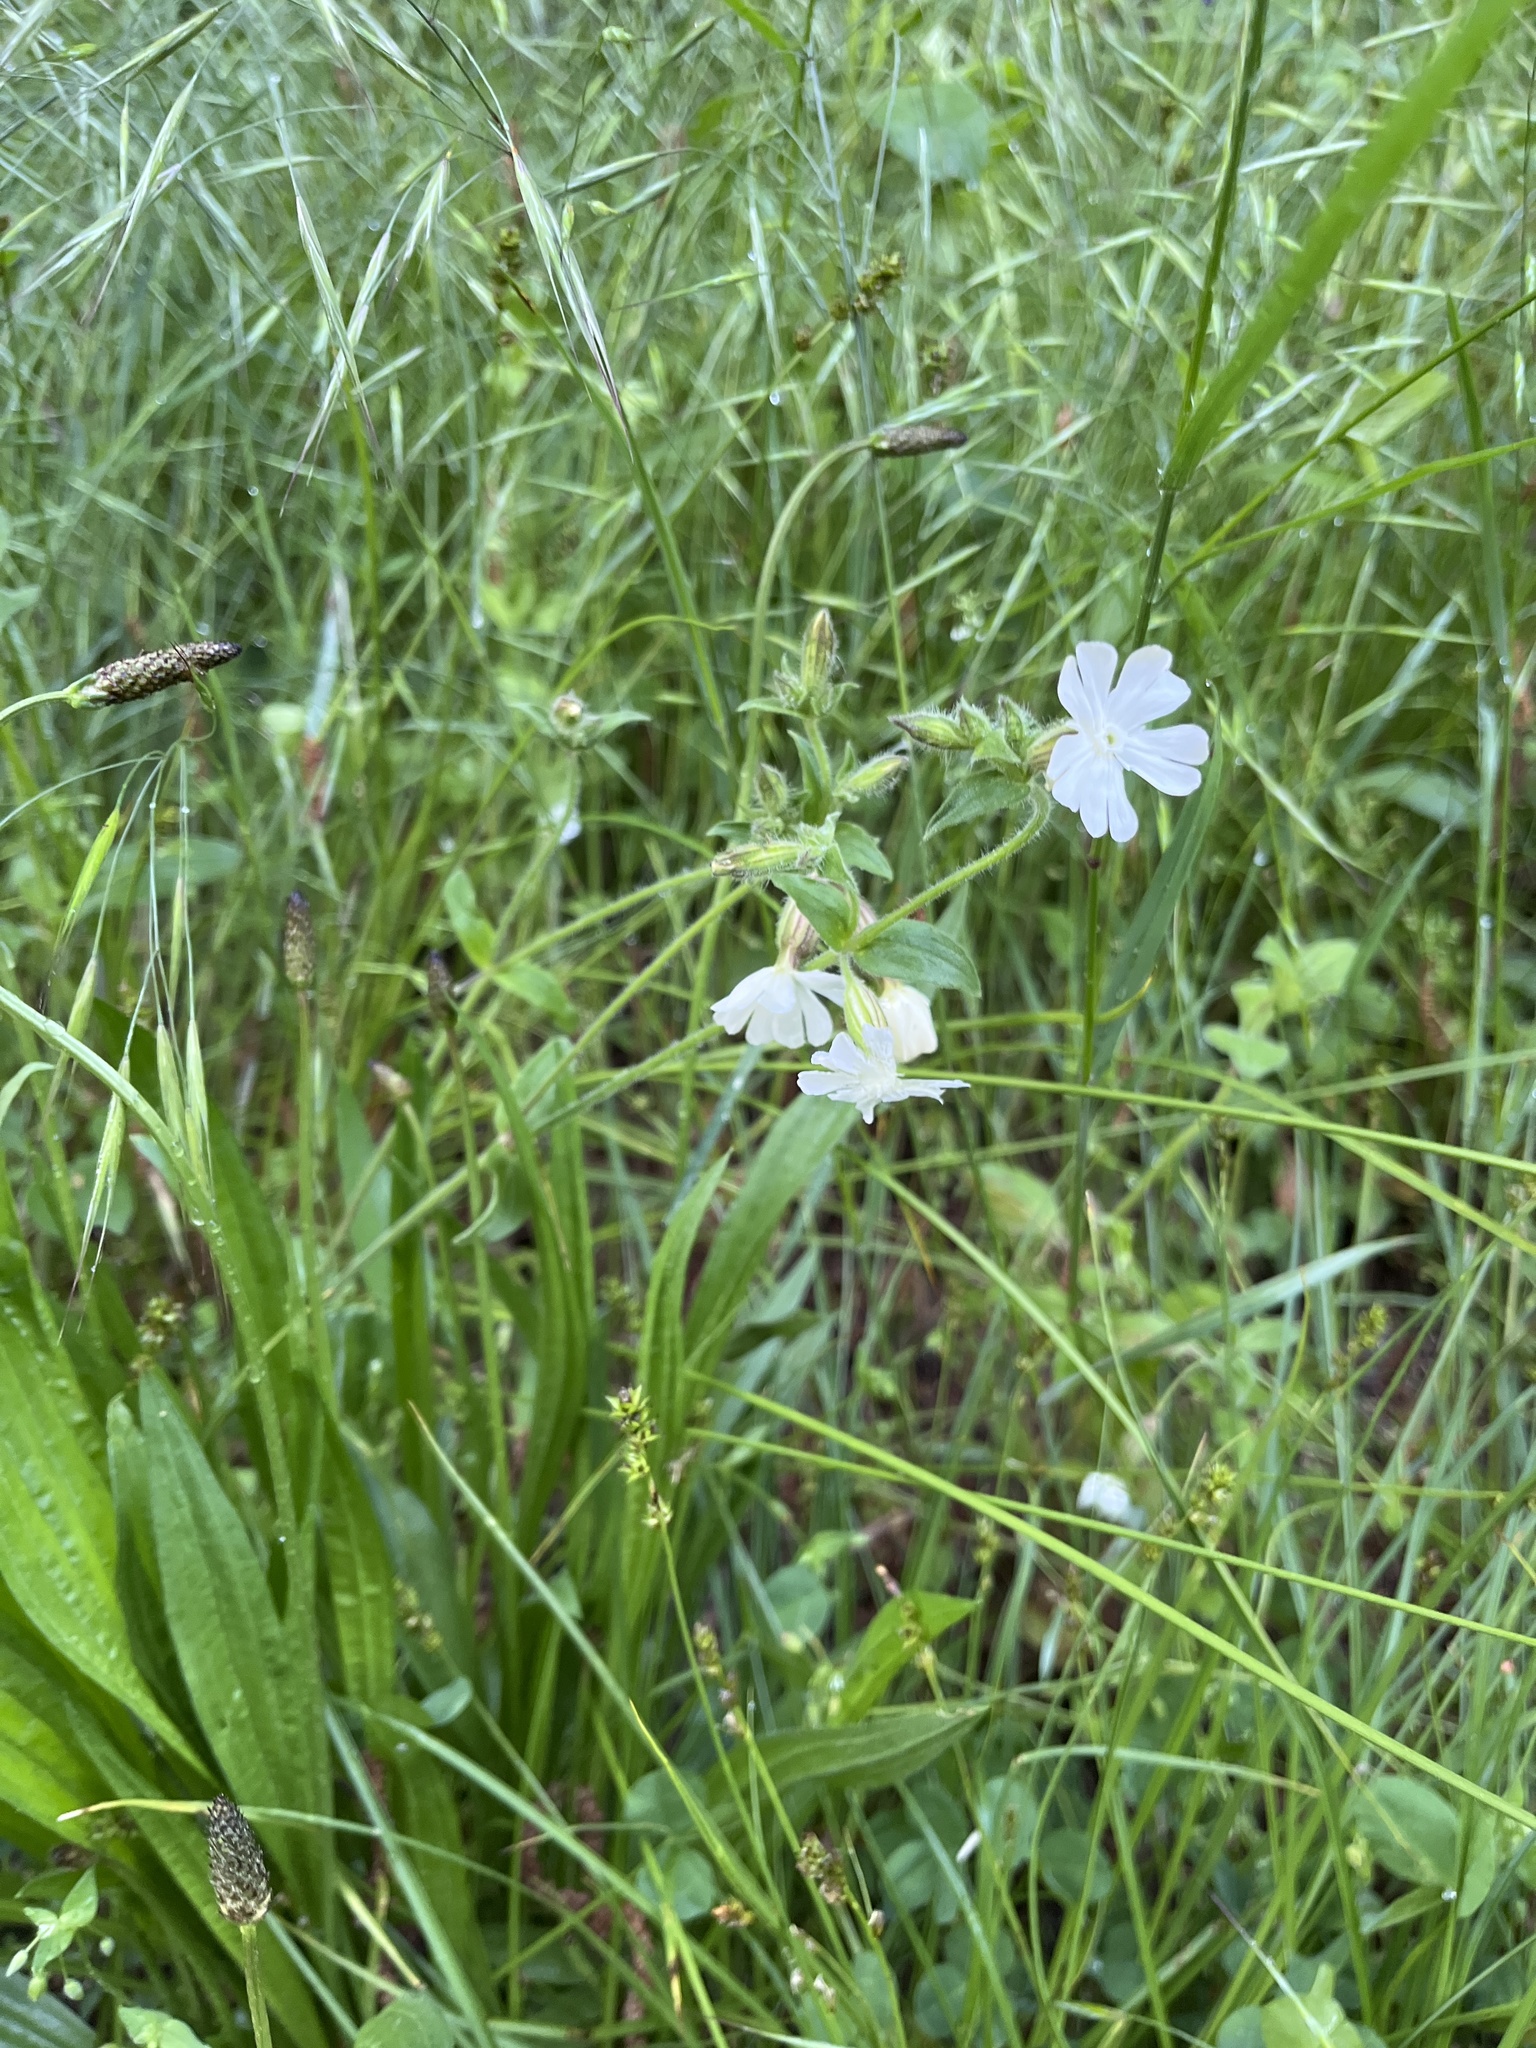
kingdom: Plantae
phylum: Tracheophyta
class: Magnoliopsida
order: Caryophyllales
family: Caryophyllaceae
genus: Silene
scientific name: Silene latifolia
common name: White campion
